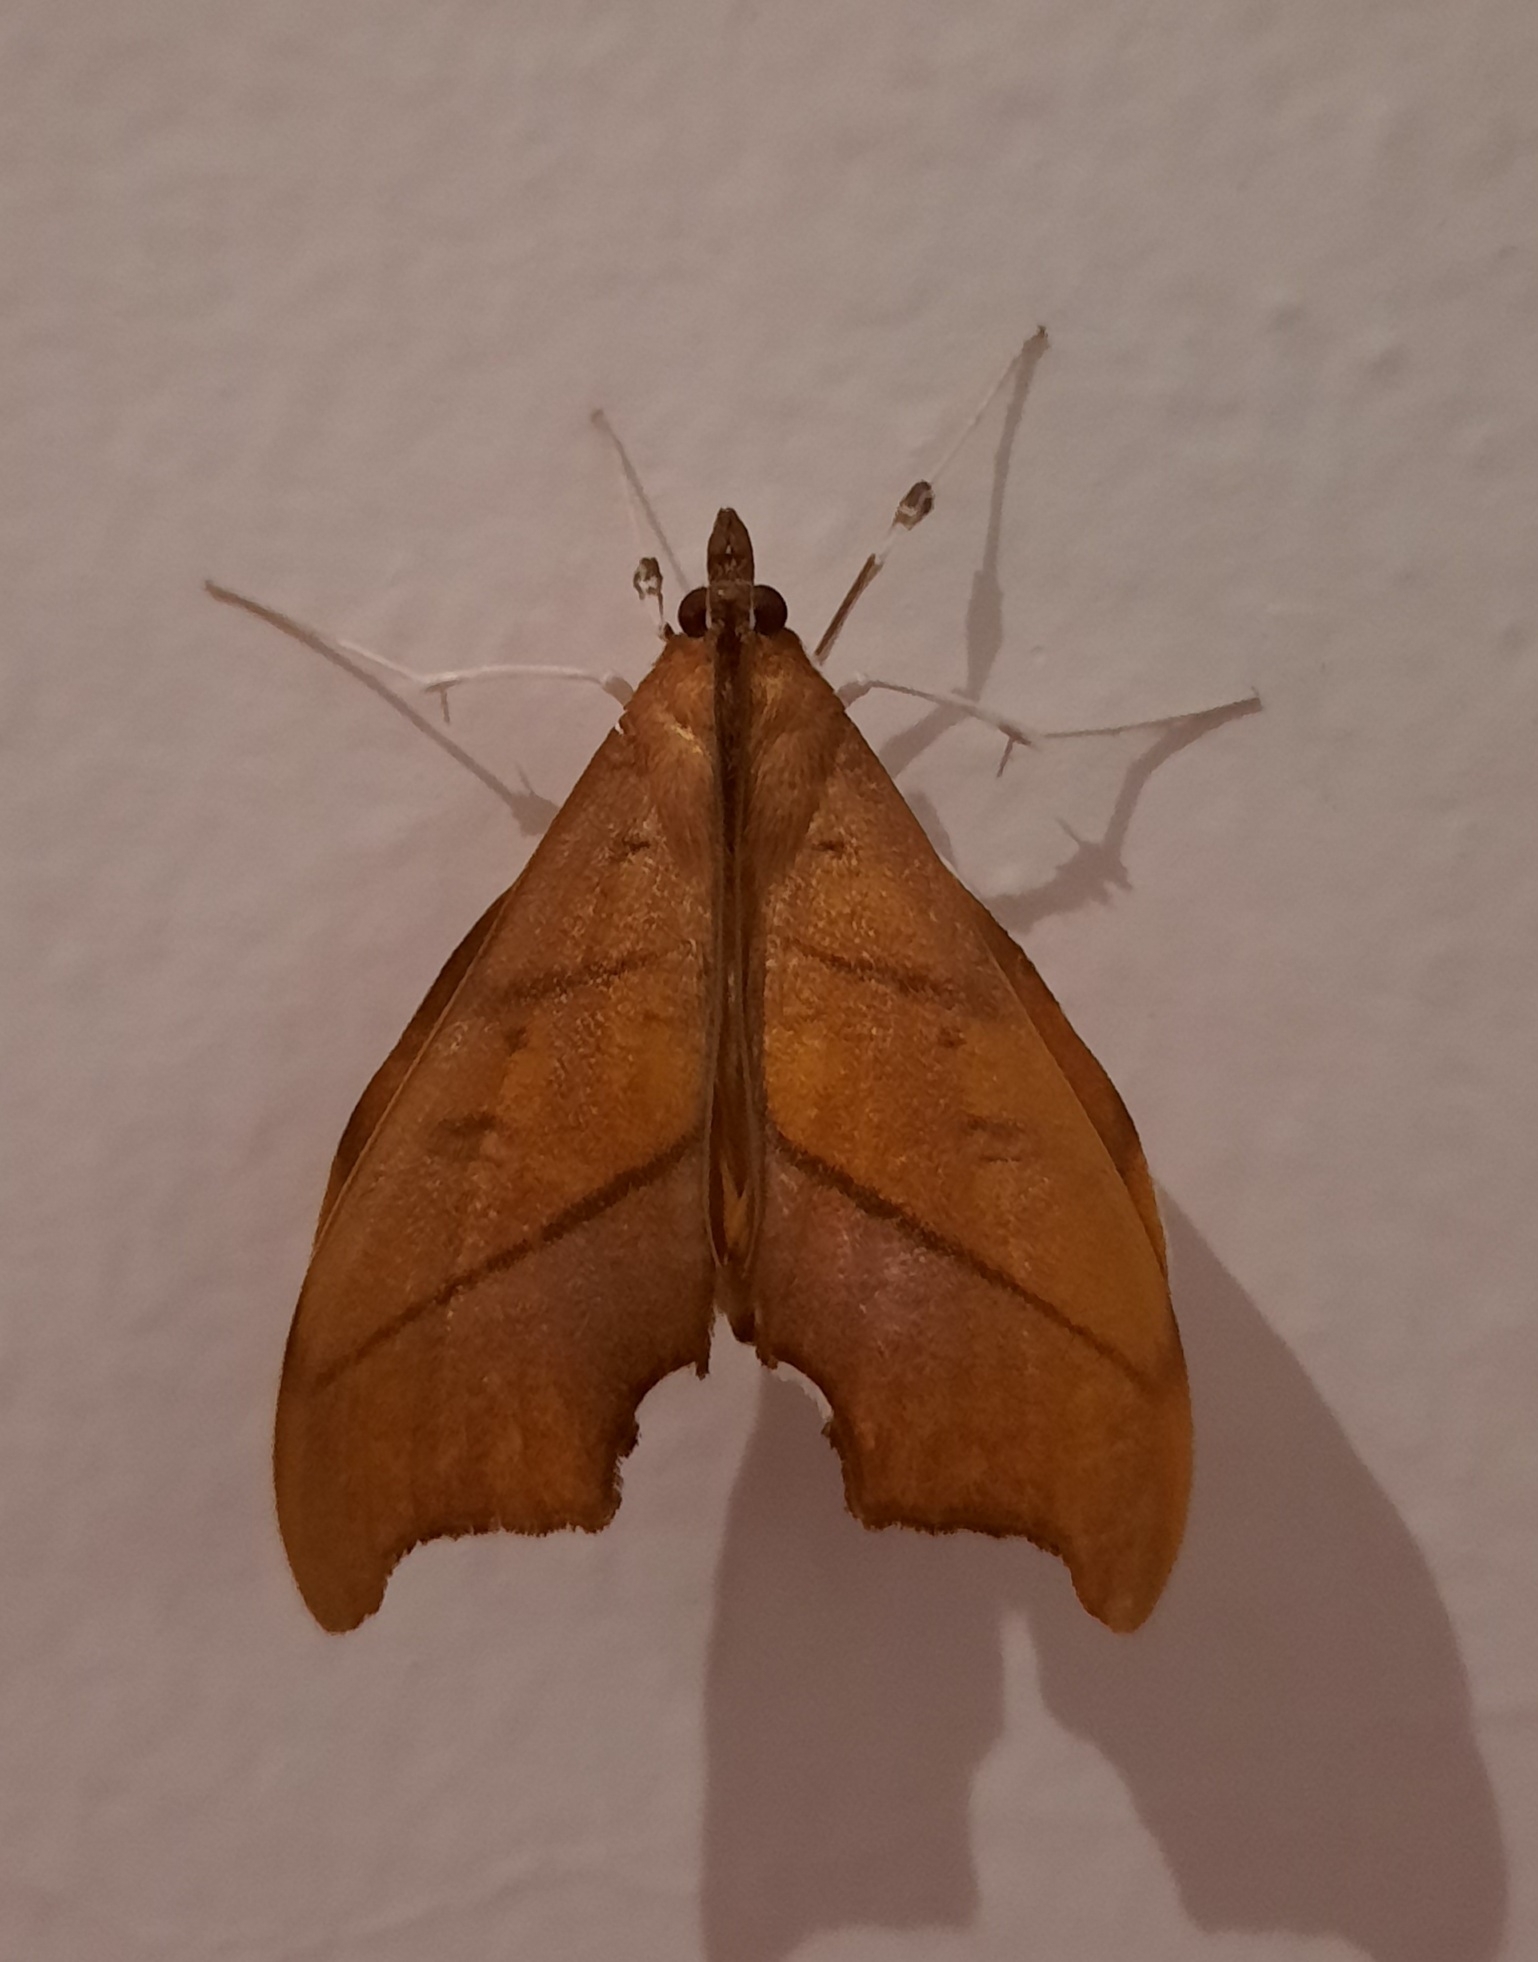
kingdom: Animalia
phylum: Arthropoda
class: Insecta
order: Lepidoptera
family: Crambidae
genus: Sparagmia
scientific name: Sparagmia gonoptera
